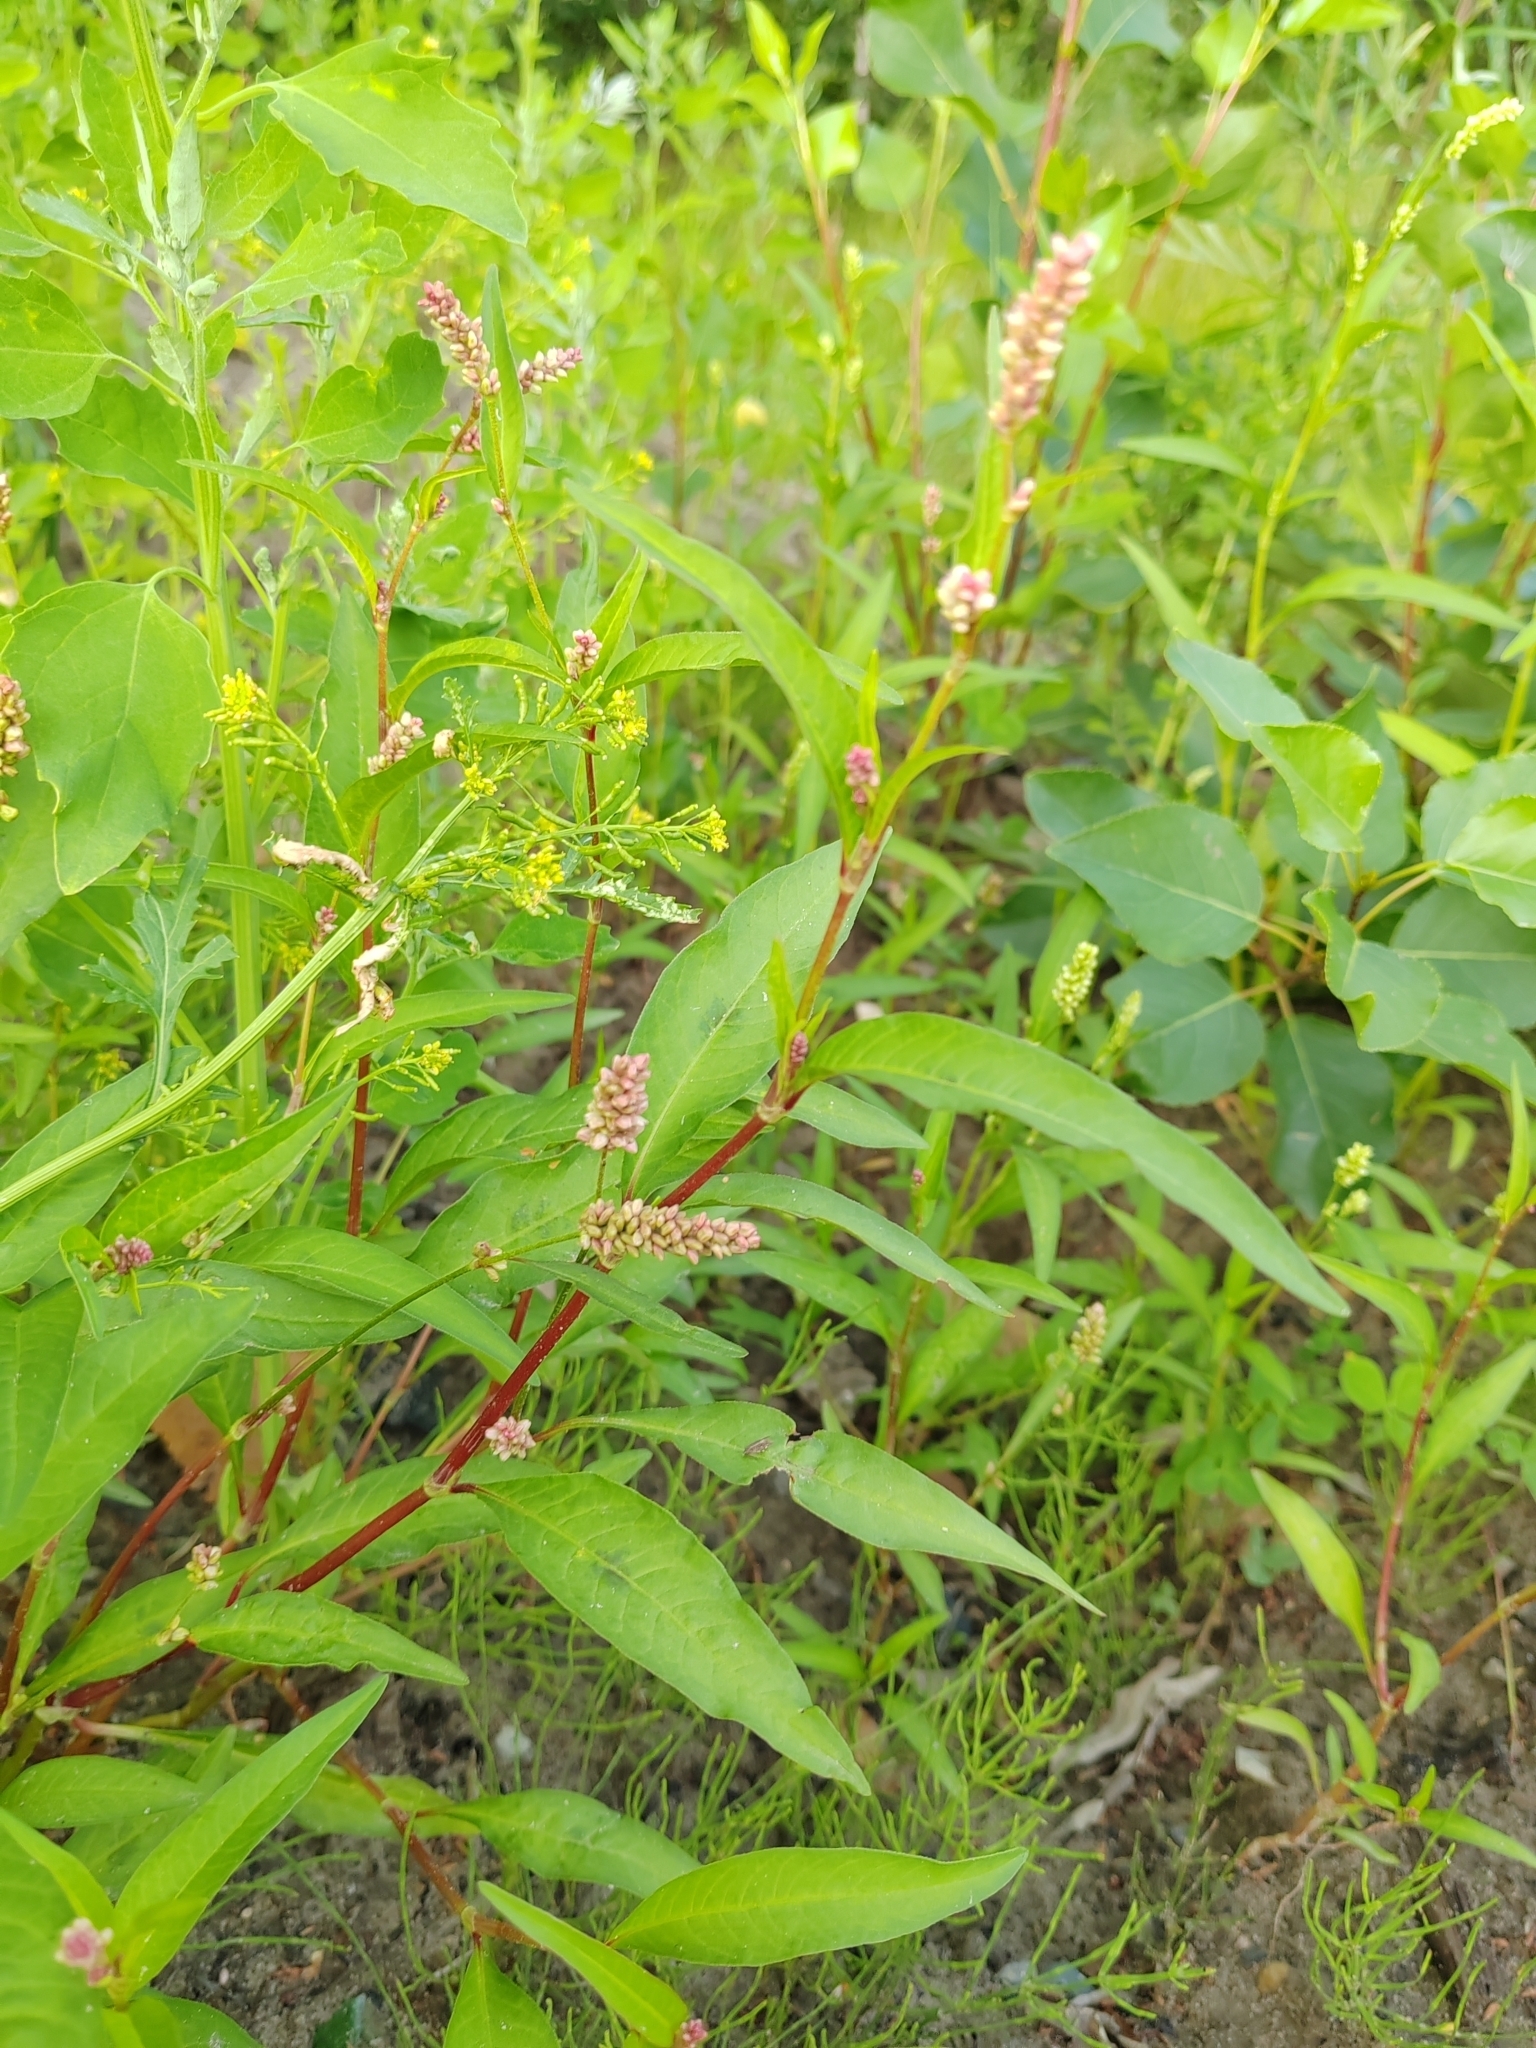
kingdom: Plantae
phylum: Tracheophyta
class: Magnoliopsida
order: Caryophyllales
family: Polygonaceae
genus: Persicaria
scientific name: Persicaria lapathifolia
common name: Curlytop knotweed
